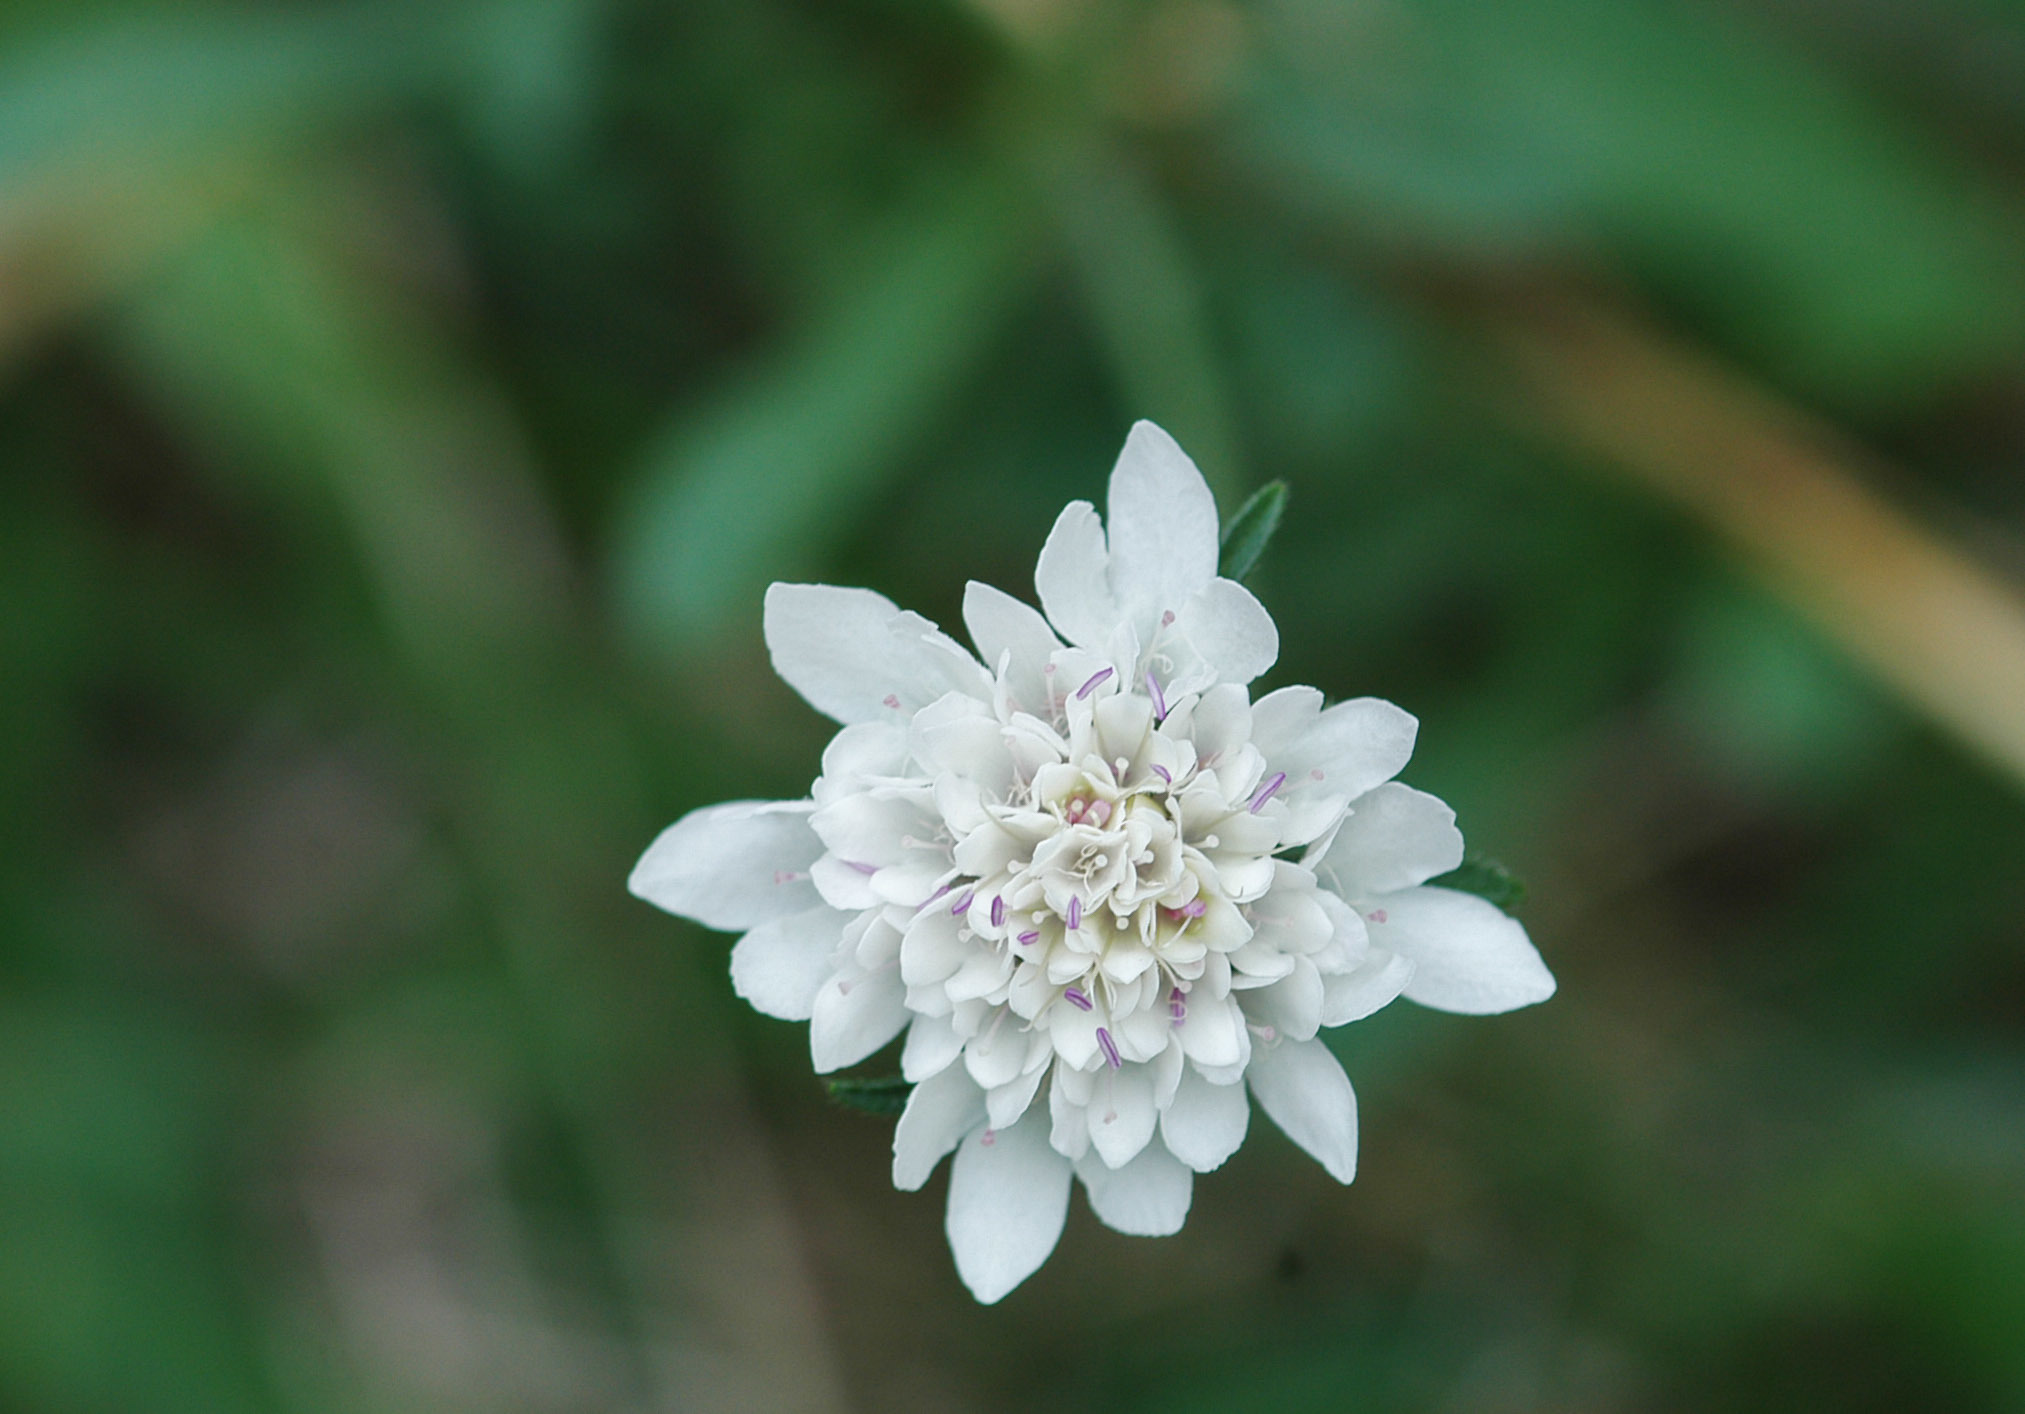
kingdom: Plantae
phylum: Tracheophyta
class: Magnoliopsida
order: Dipsacales
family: Caprifoliaceae
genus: Sixalix
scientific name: Sixalix atropurpurea
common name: Sweet scabious
